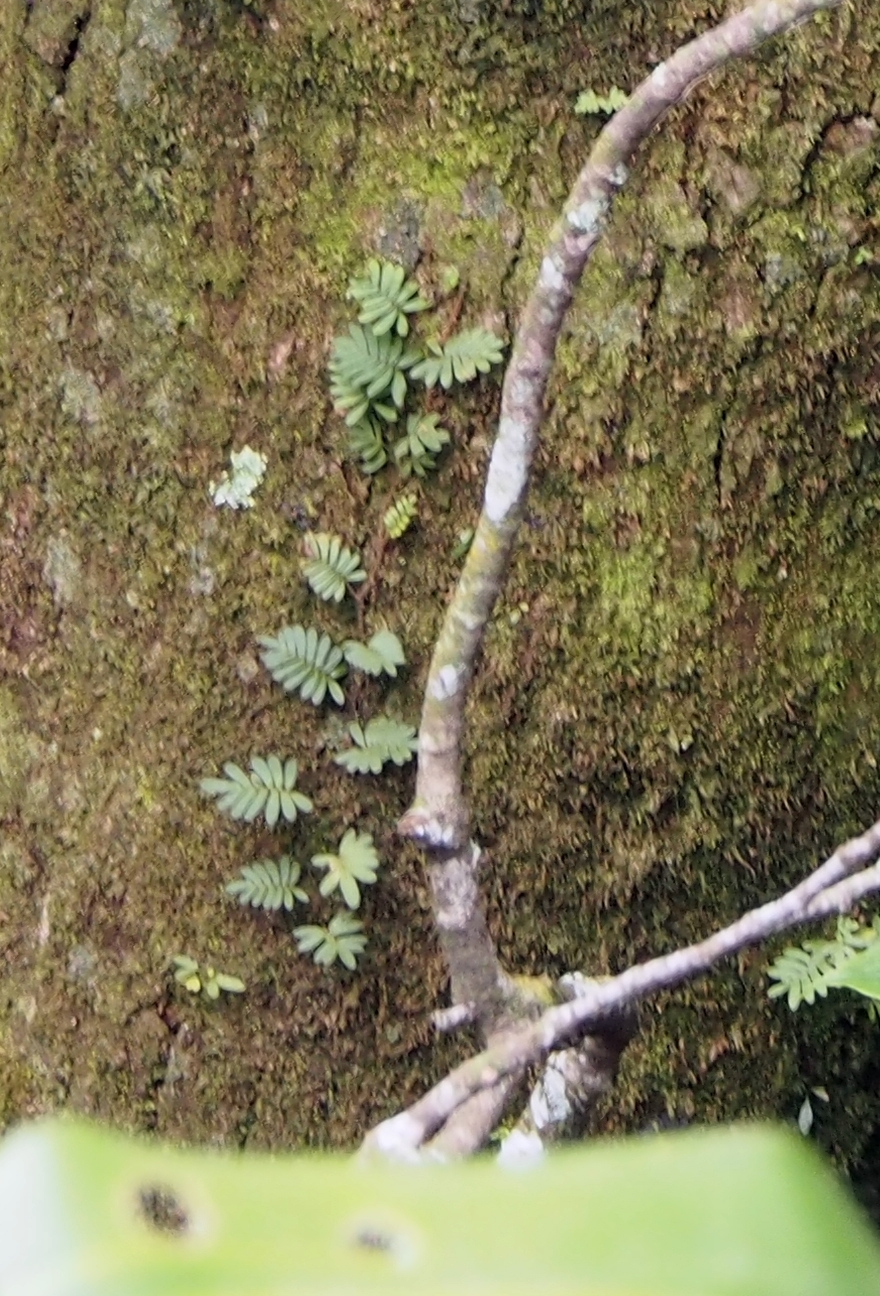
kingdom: Plantae
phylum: Tracheophyta
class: Polypodiopsida
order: Polypodiales
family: Polypodiaceae
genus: Pleopeltis
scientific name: Pleopeltis polypodioides
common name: Resurrection fern
